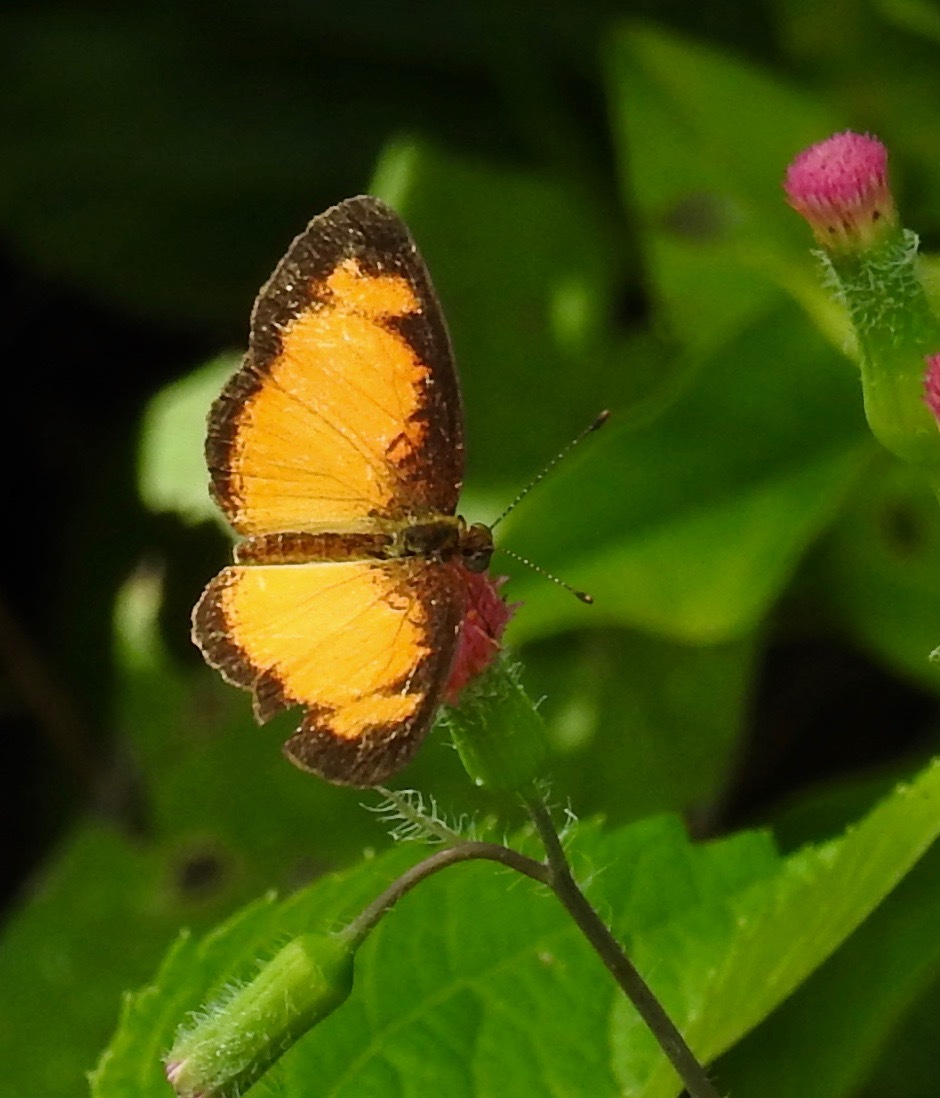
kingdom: Animalia
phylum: Arthropoda
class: Insecta
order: Lepidoptera
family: Nymphalidae
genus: Tegosa
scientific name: Tegosa anieta
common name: Black-bordered crescent
